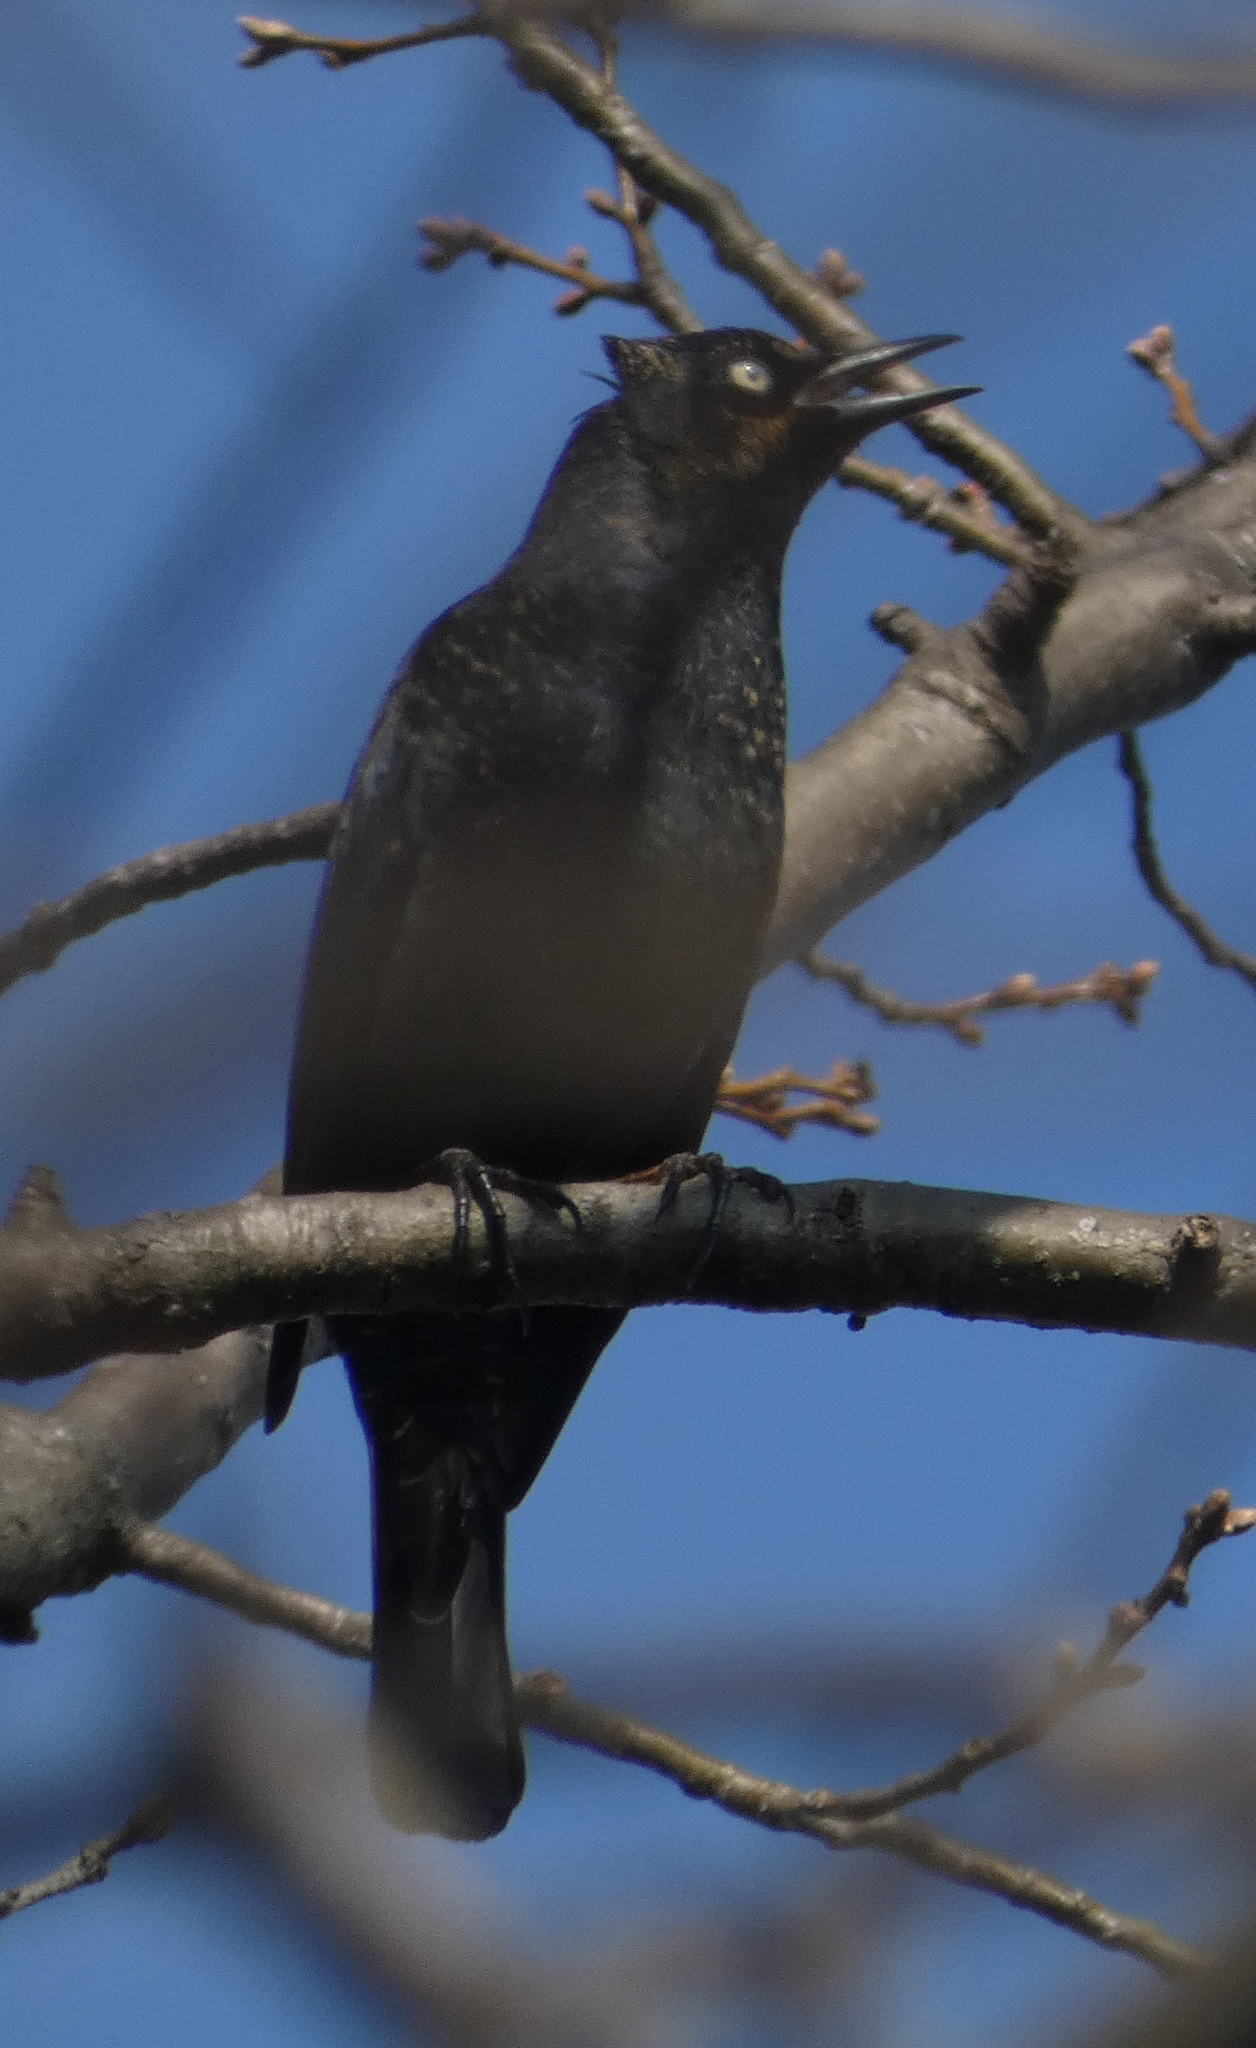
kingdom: Animalia
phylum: Chordata
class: Aves
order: Passeriformes
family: Icteridae
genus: Euphagus
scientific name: Euphagus carolinus
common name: Rusty blackbird
